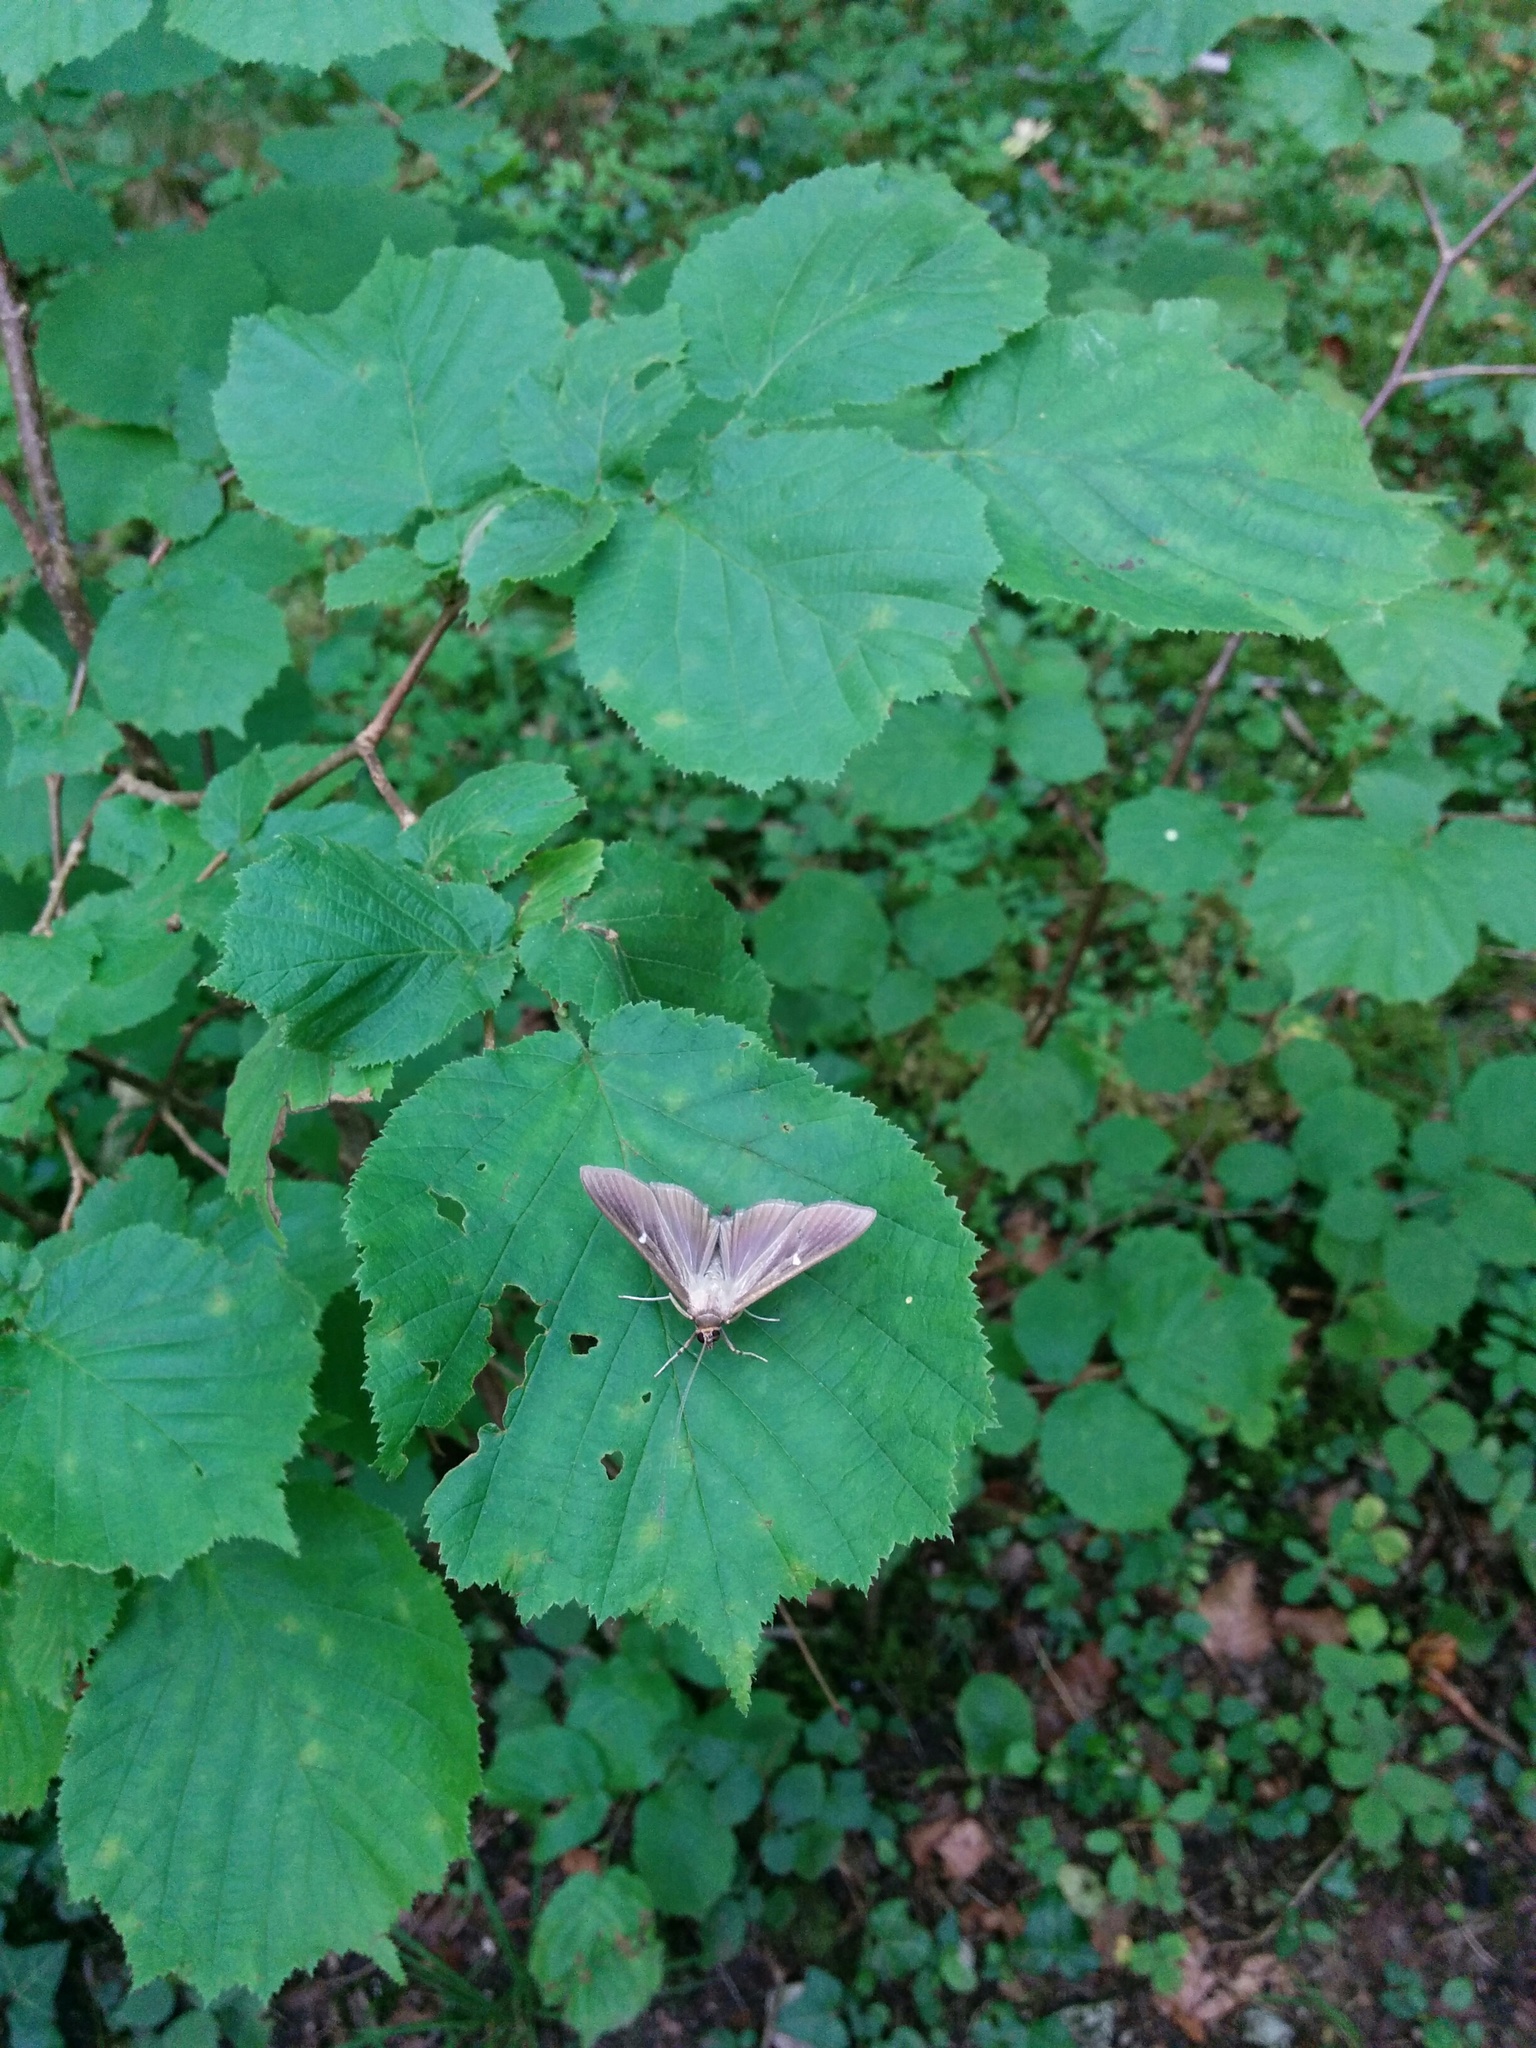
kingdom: Animalia
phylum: Arthropoda
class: Insecta
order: Lepidoptera
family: Crambidae
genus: Cydalima
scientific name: Cydalima perspectalis
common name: Box tree moth
